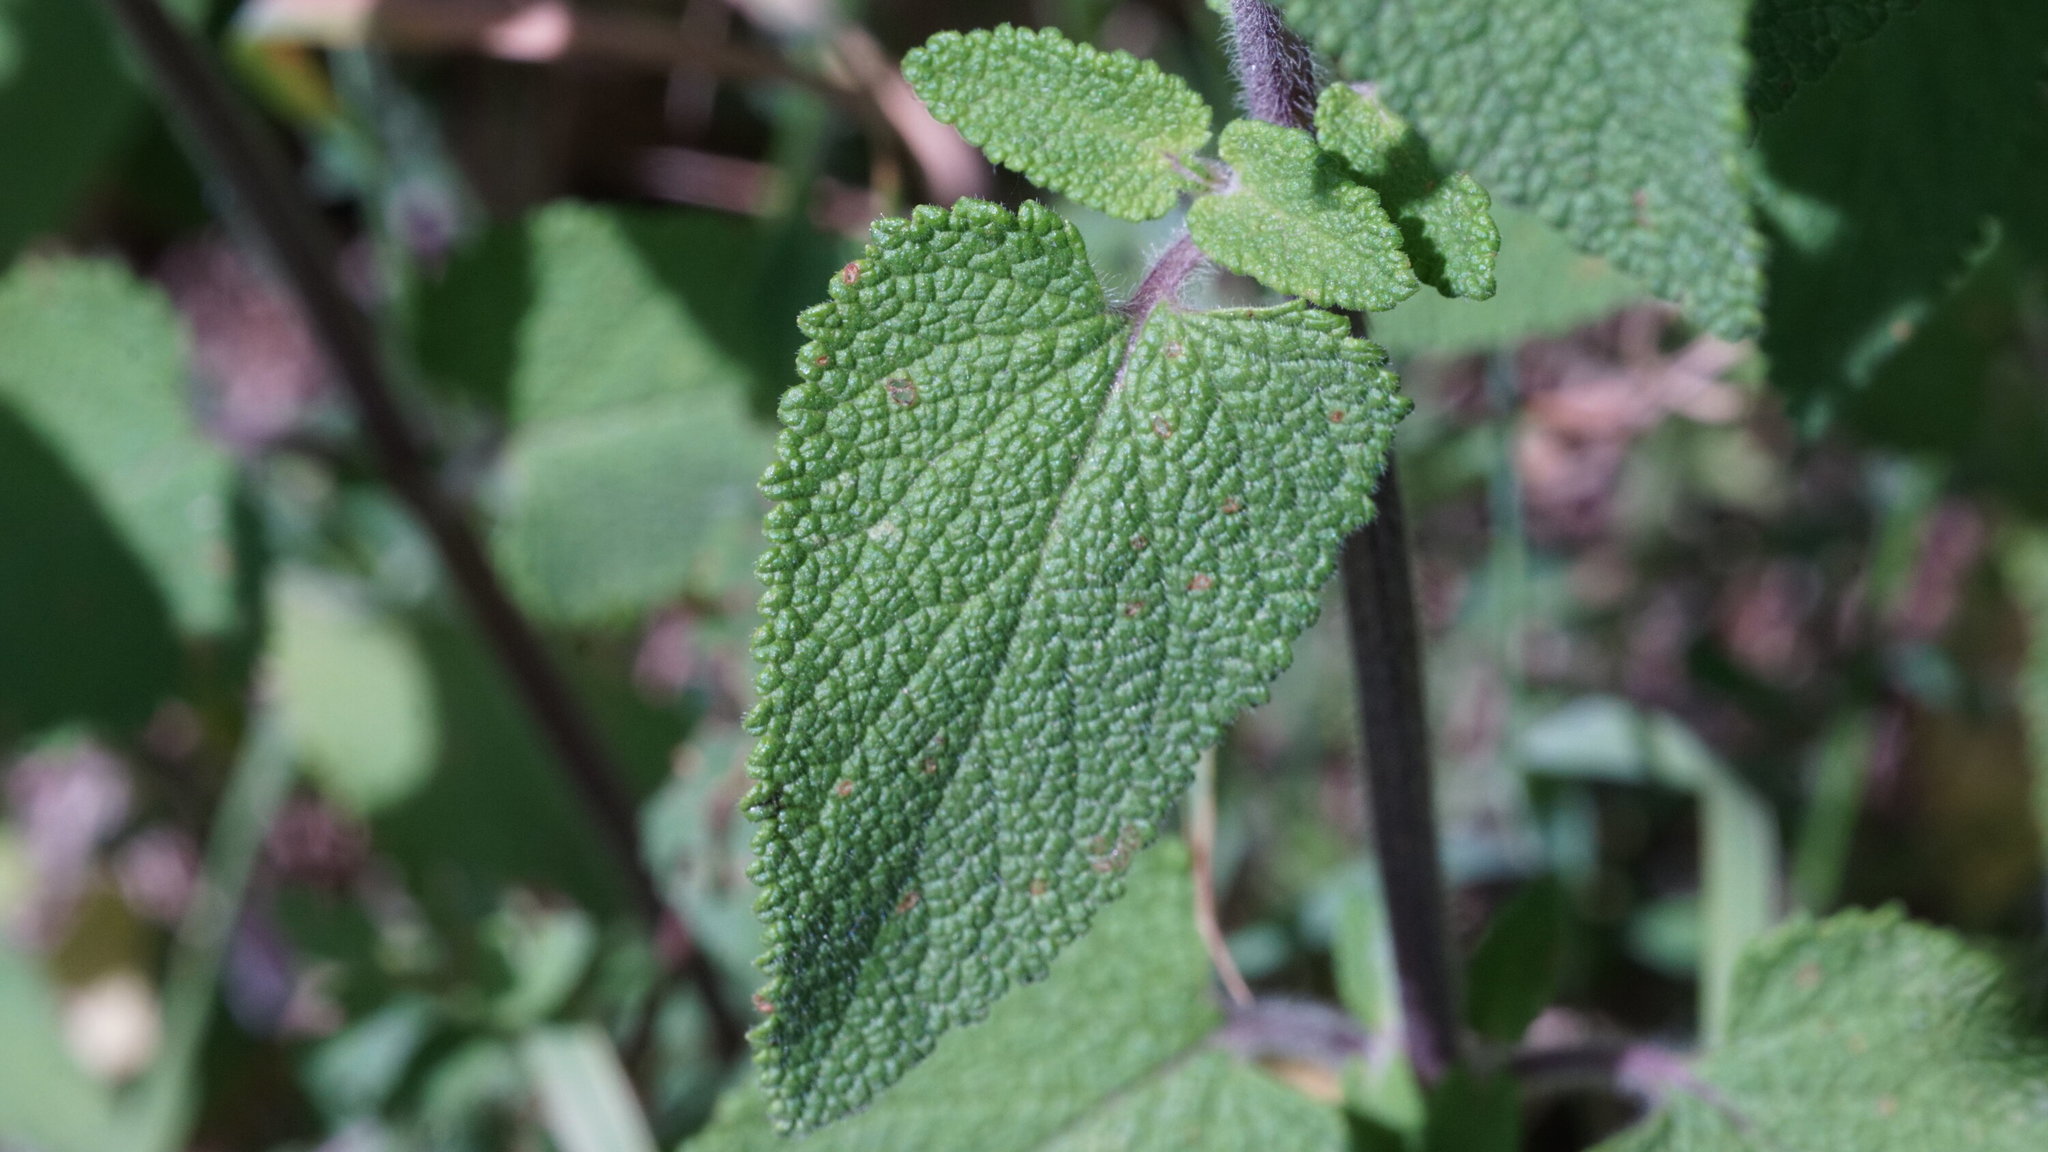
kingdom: Plantae
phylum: Tracheophyta
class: Magnoliopsida
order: Lamiales
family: Lamiaceae
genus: Teucrium
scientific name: Teucrium scorodonia
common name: Woodland germander
